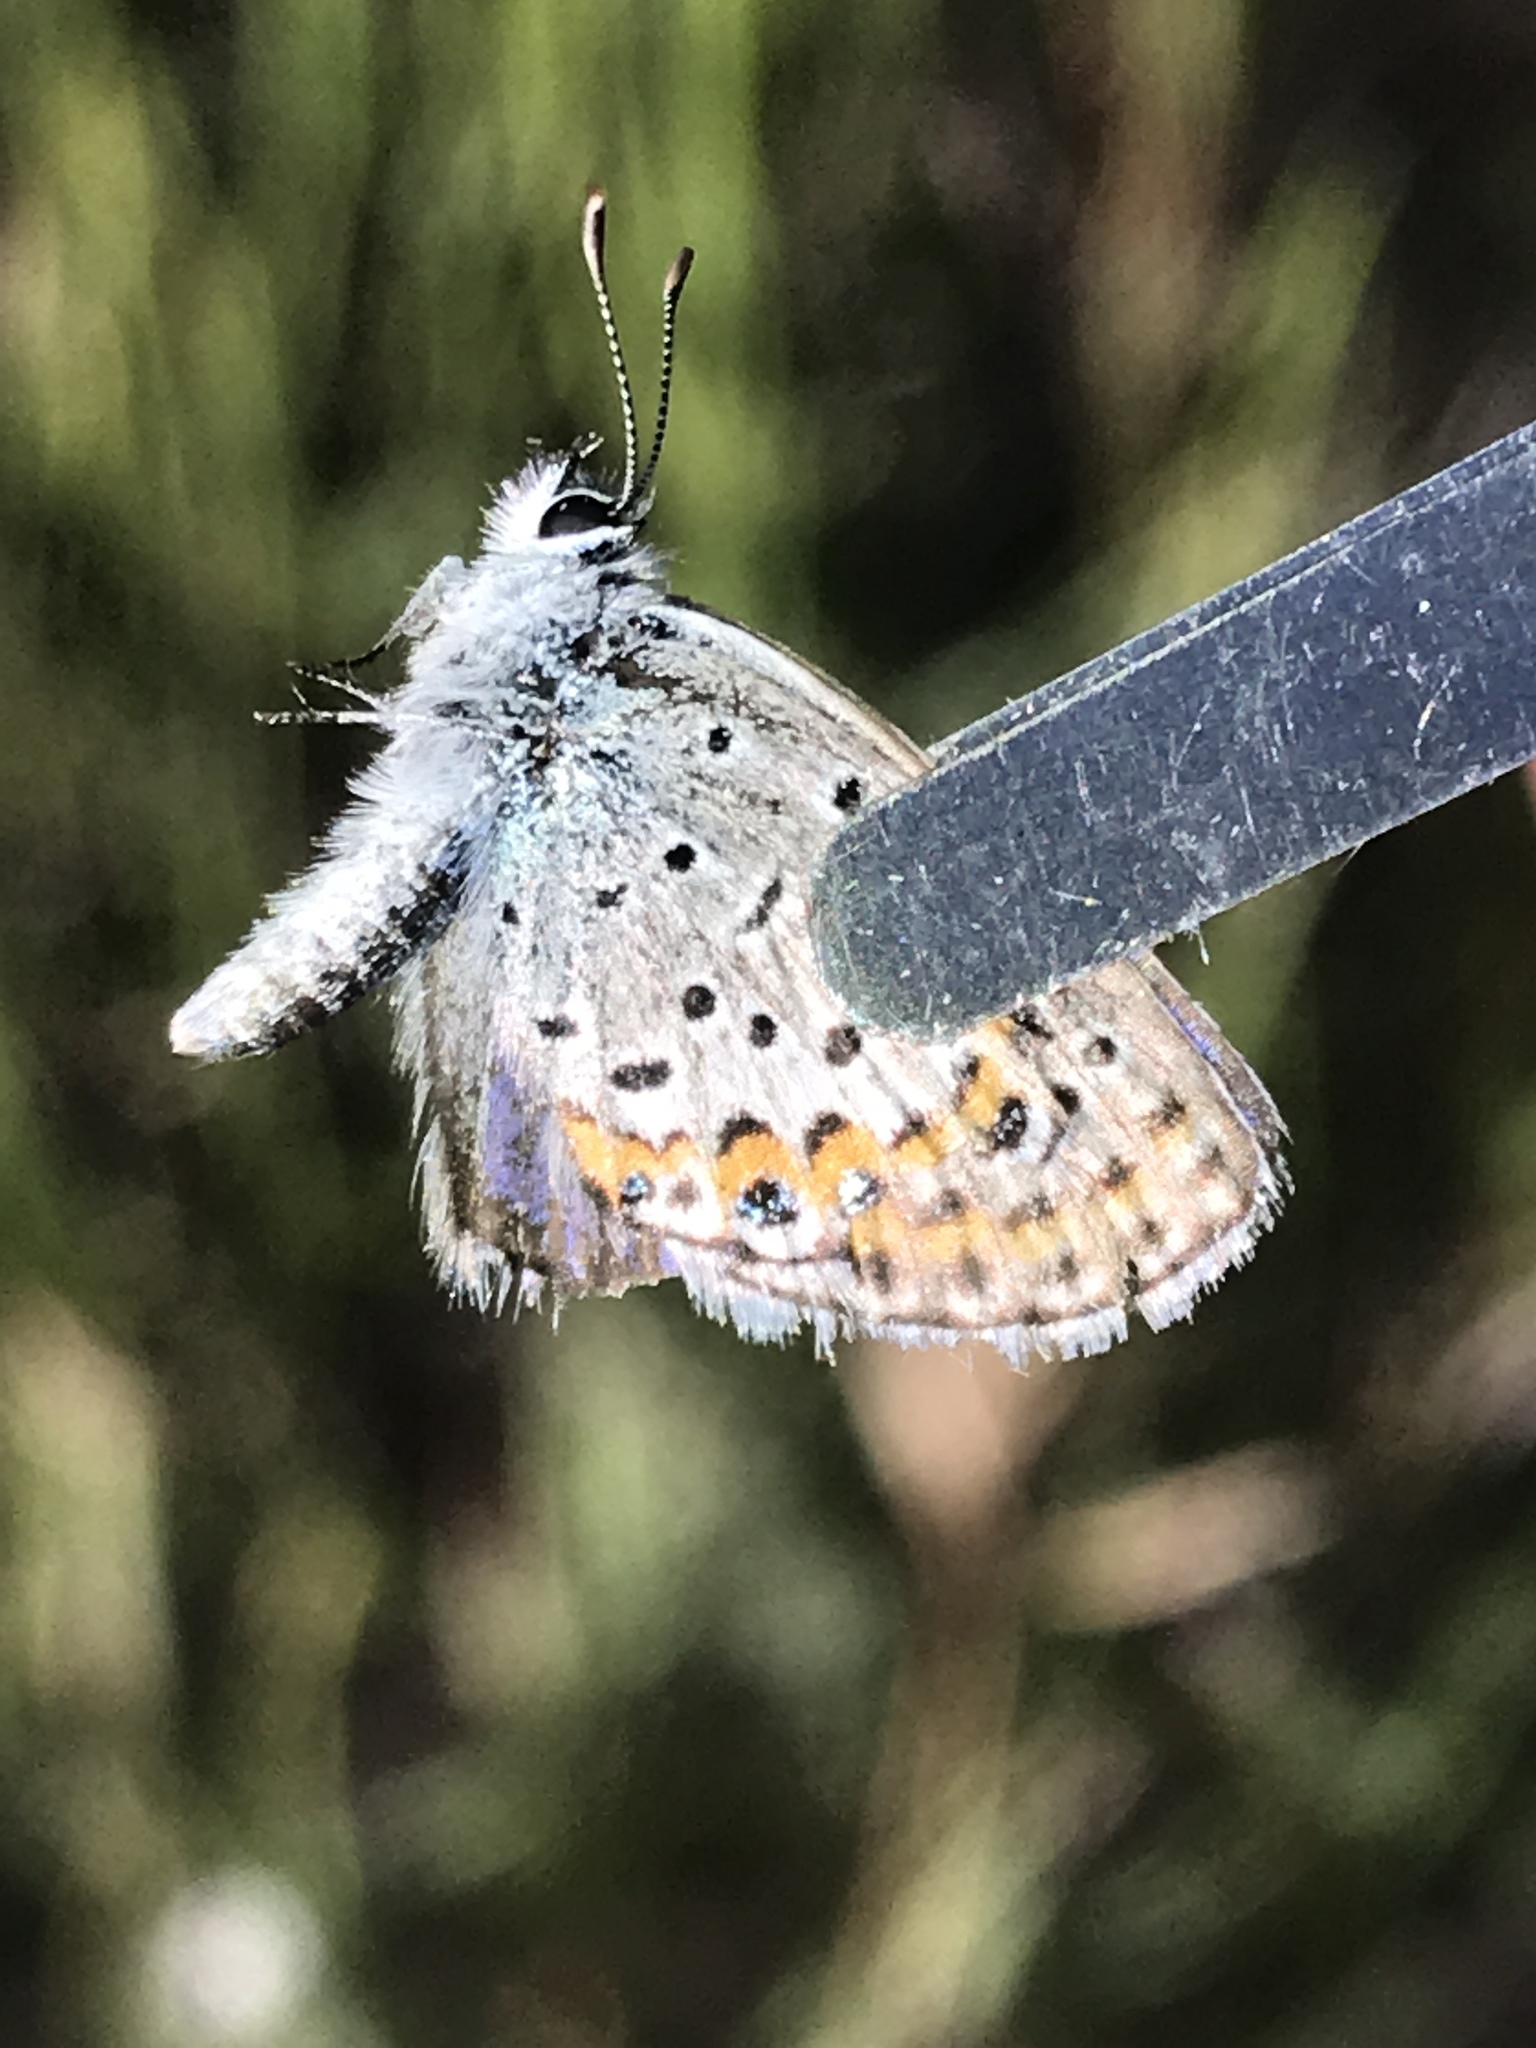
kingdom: Animalia
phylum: Arthropoda
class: Insecta
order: Lepidoptera
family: Lycaenidae
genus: Lycaeides
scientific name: Lycaeides melissa
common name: Melissa blue
